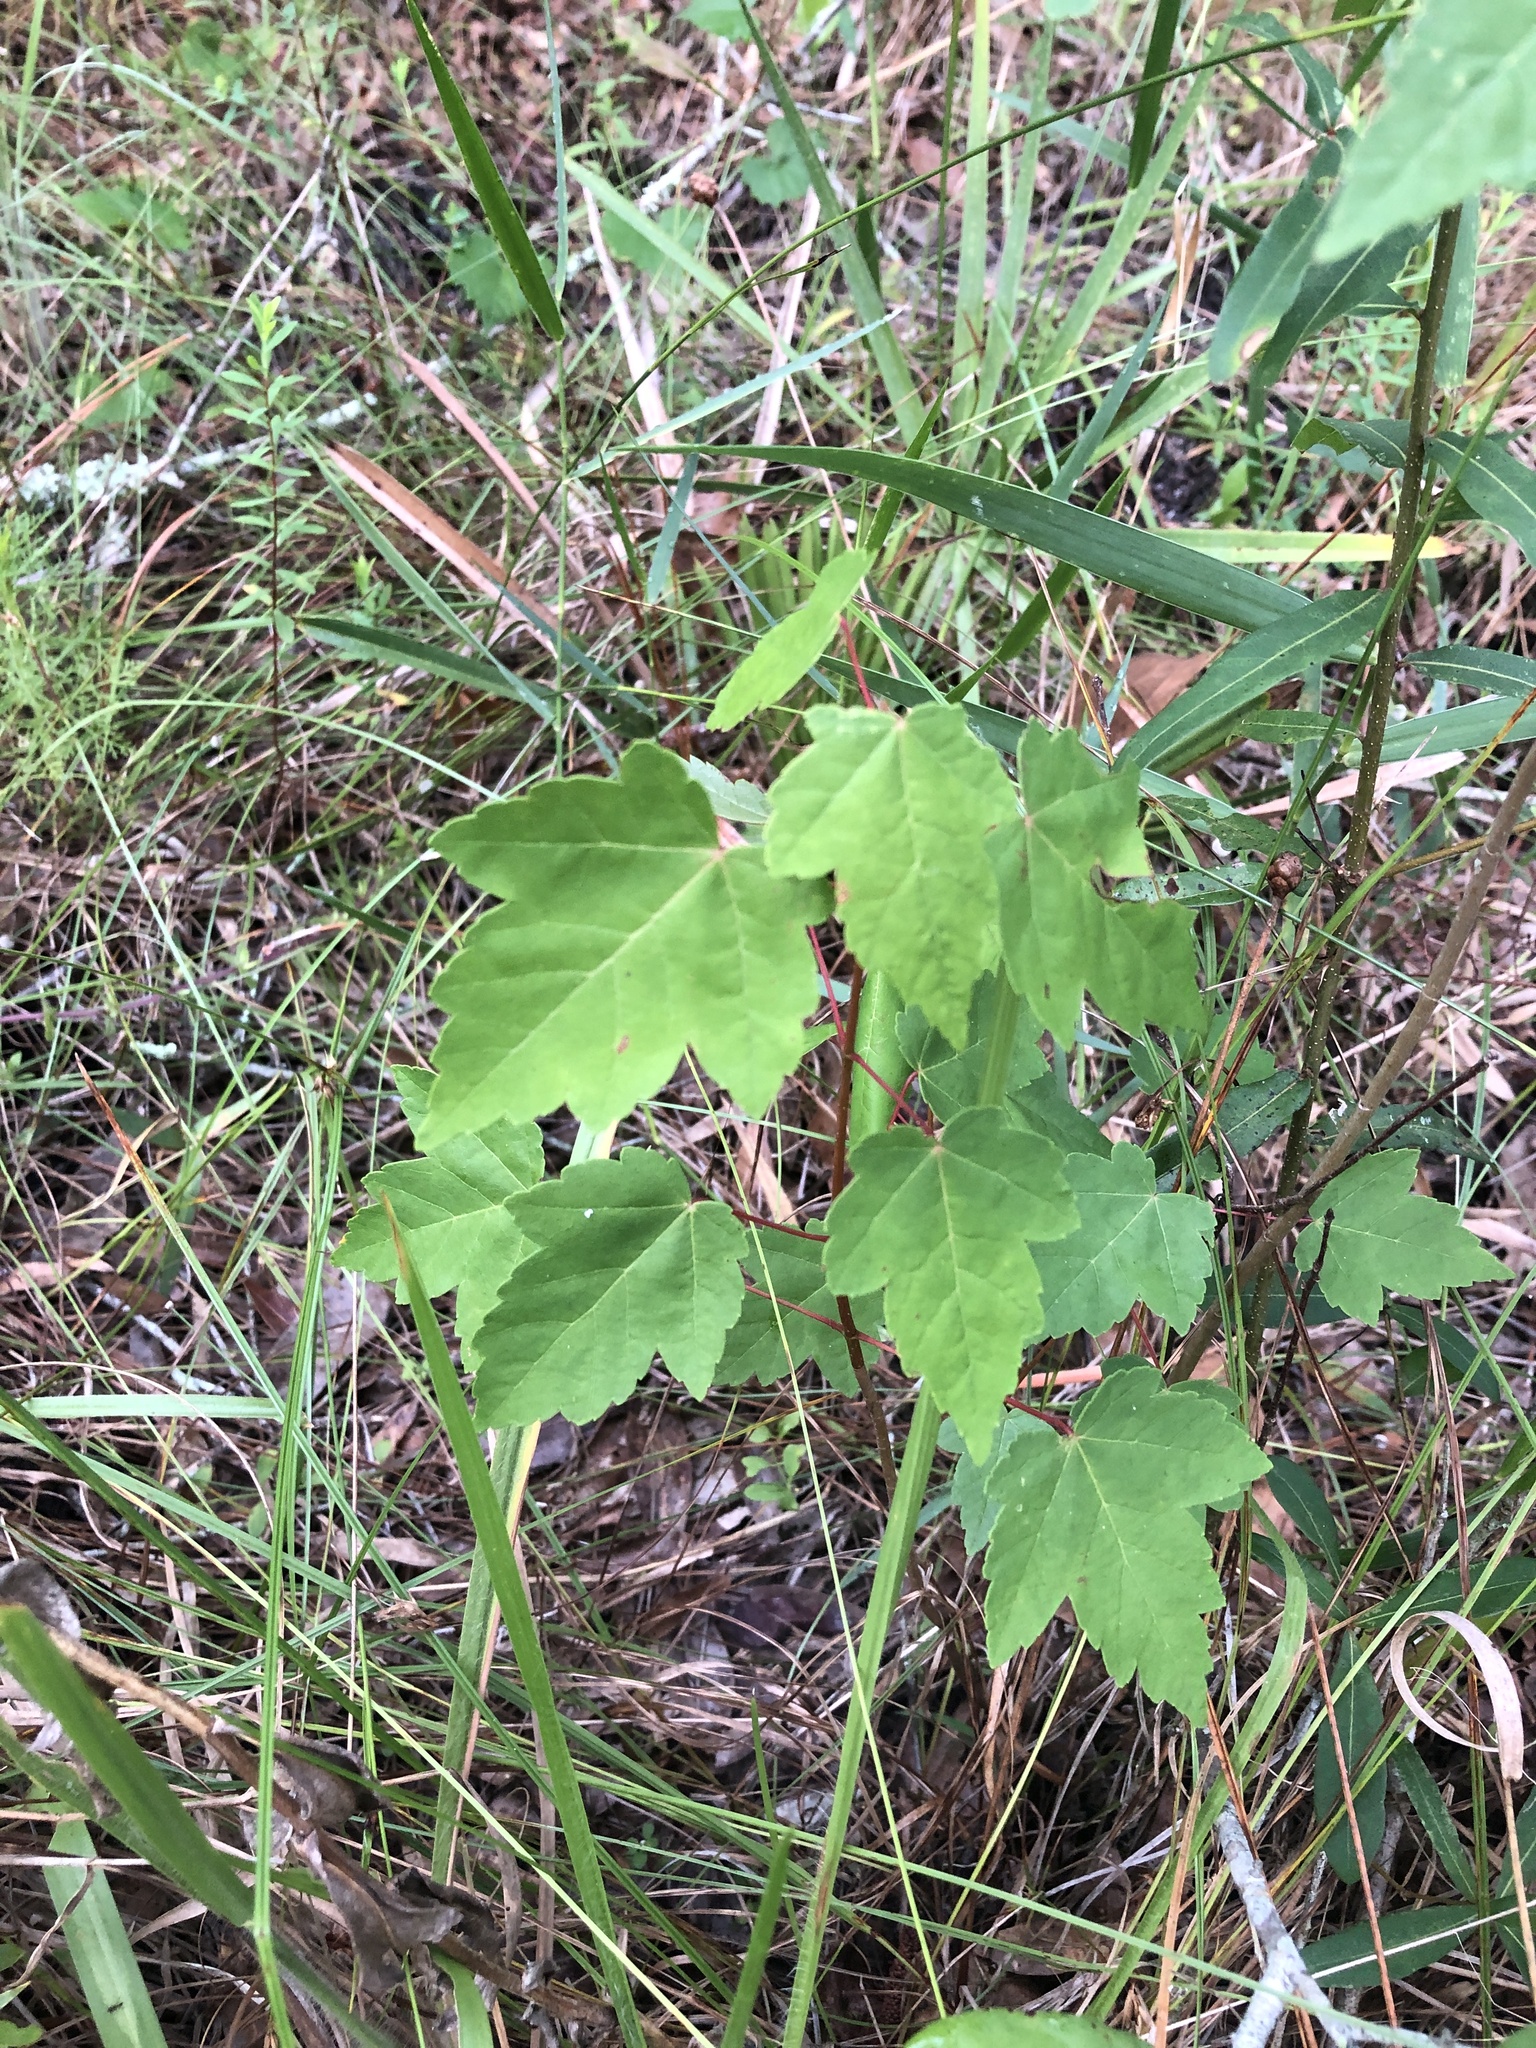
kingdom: Plantae
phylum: Tracheophyta
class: Magnoliopsida
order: Sapindales
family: Sapindaceae
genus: Acer
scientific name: Acer rubrum
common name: Red maple
